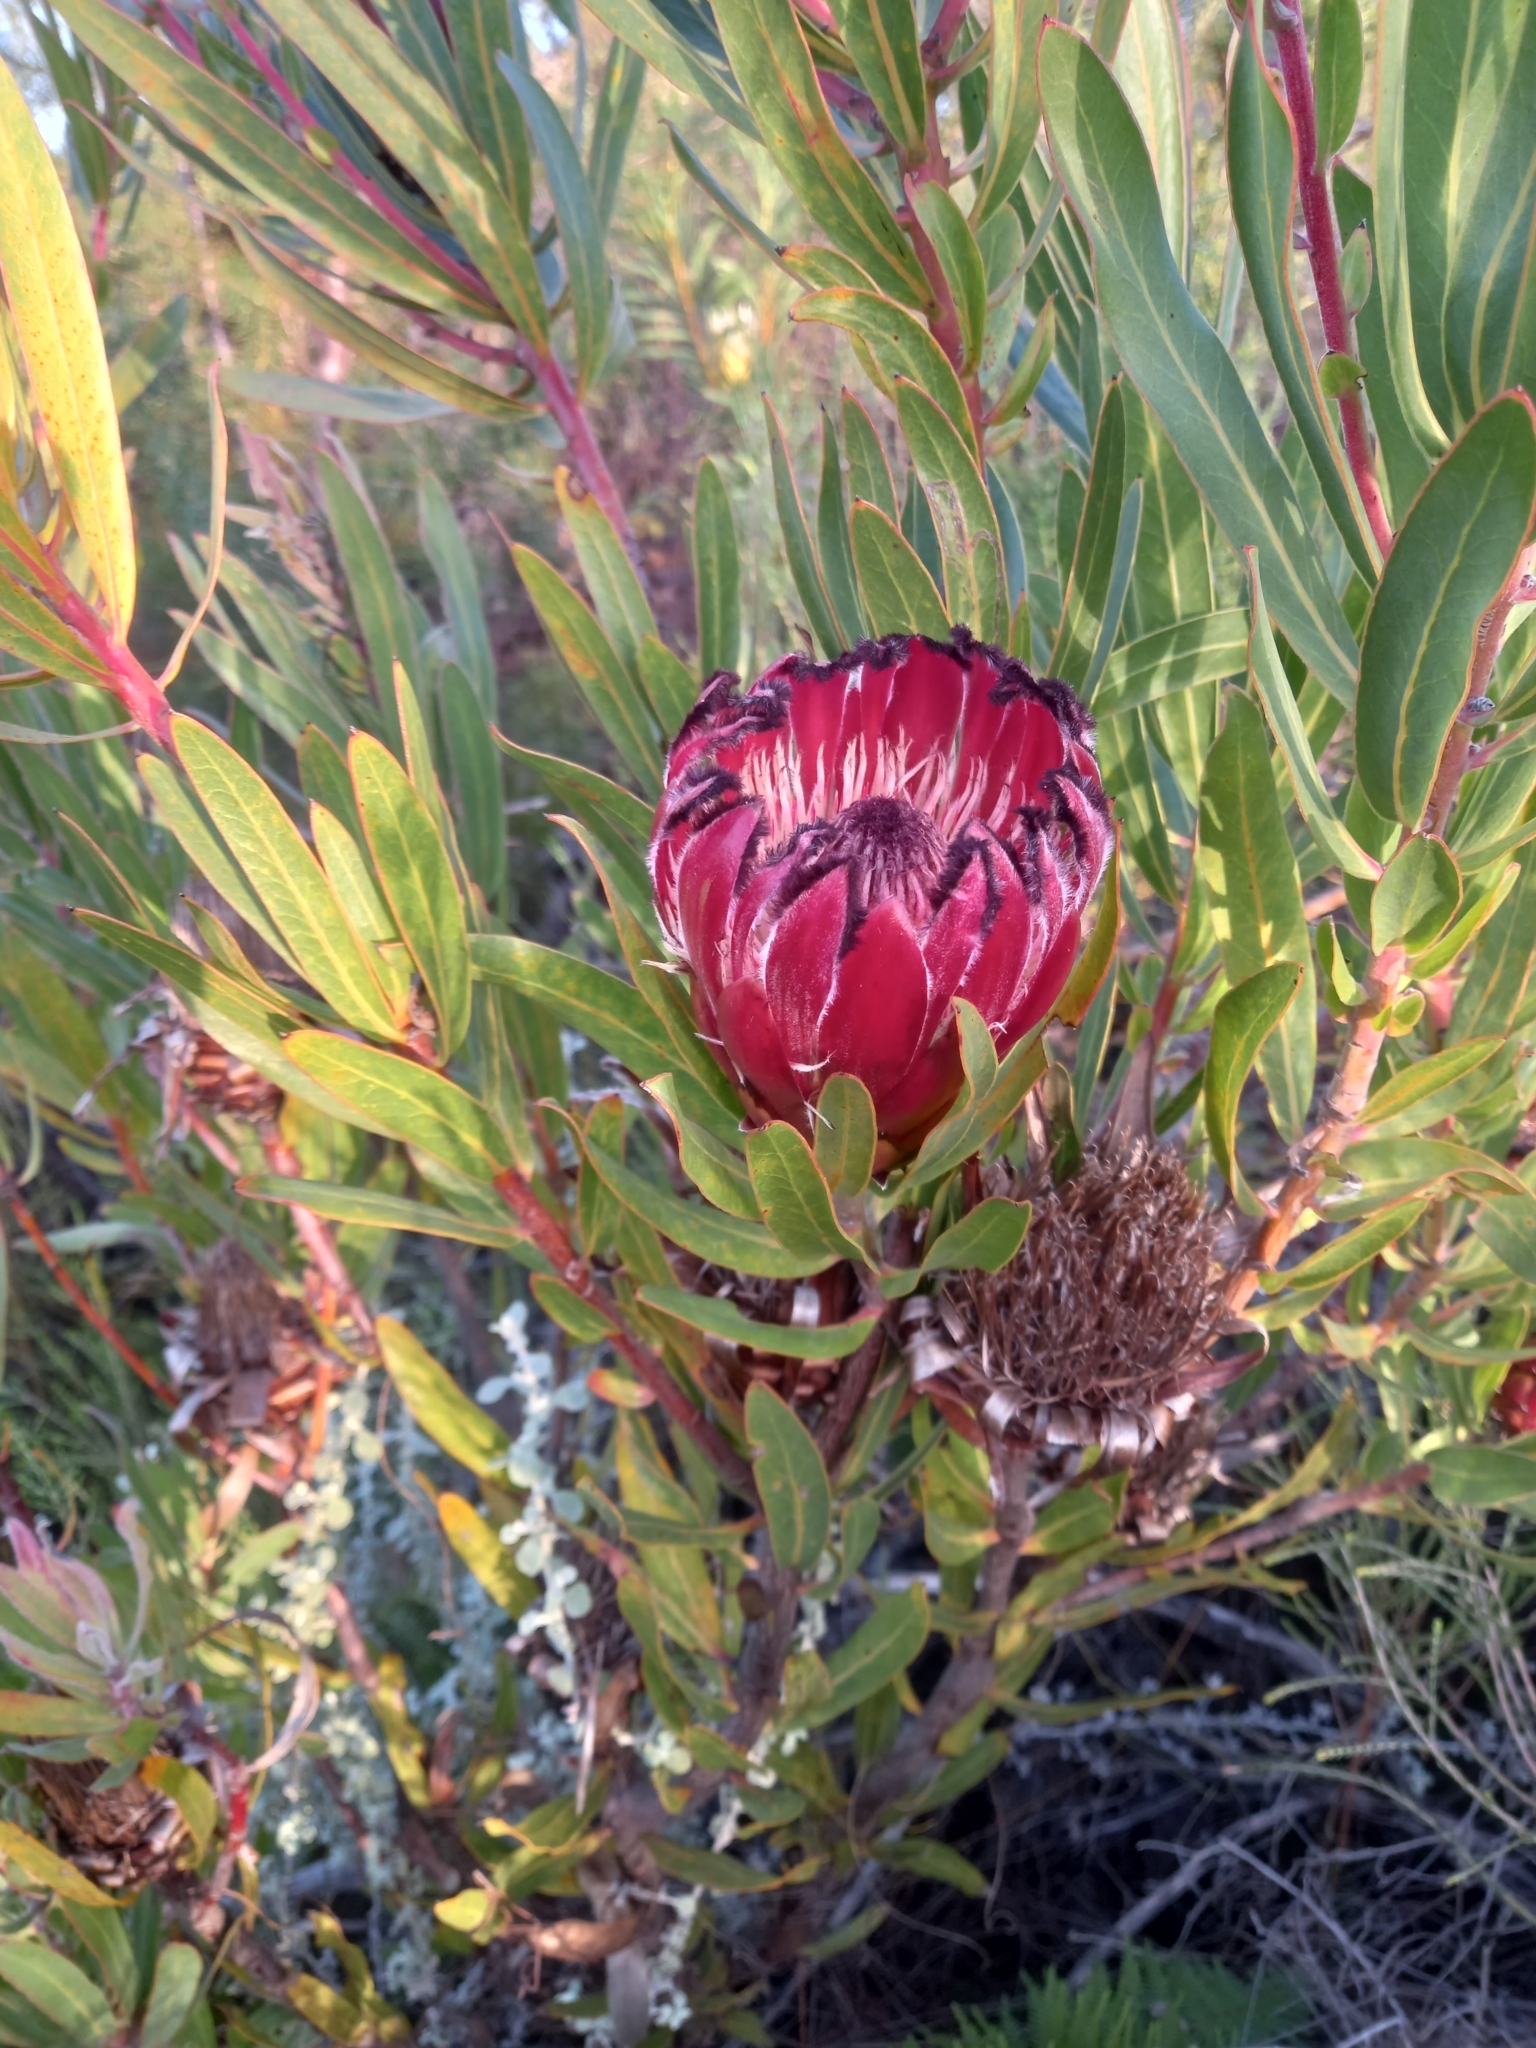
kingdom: Plantae
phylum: Tracheophyta
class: Magnoliopsida
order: Proteales
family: Proteaceae
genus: Protea
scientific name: Protea burchellii
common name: Burchell's sugarbush
